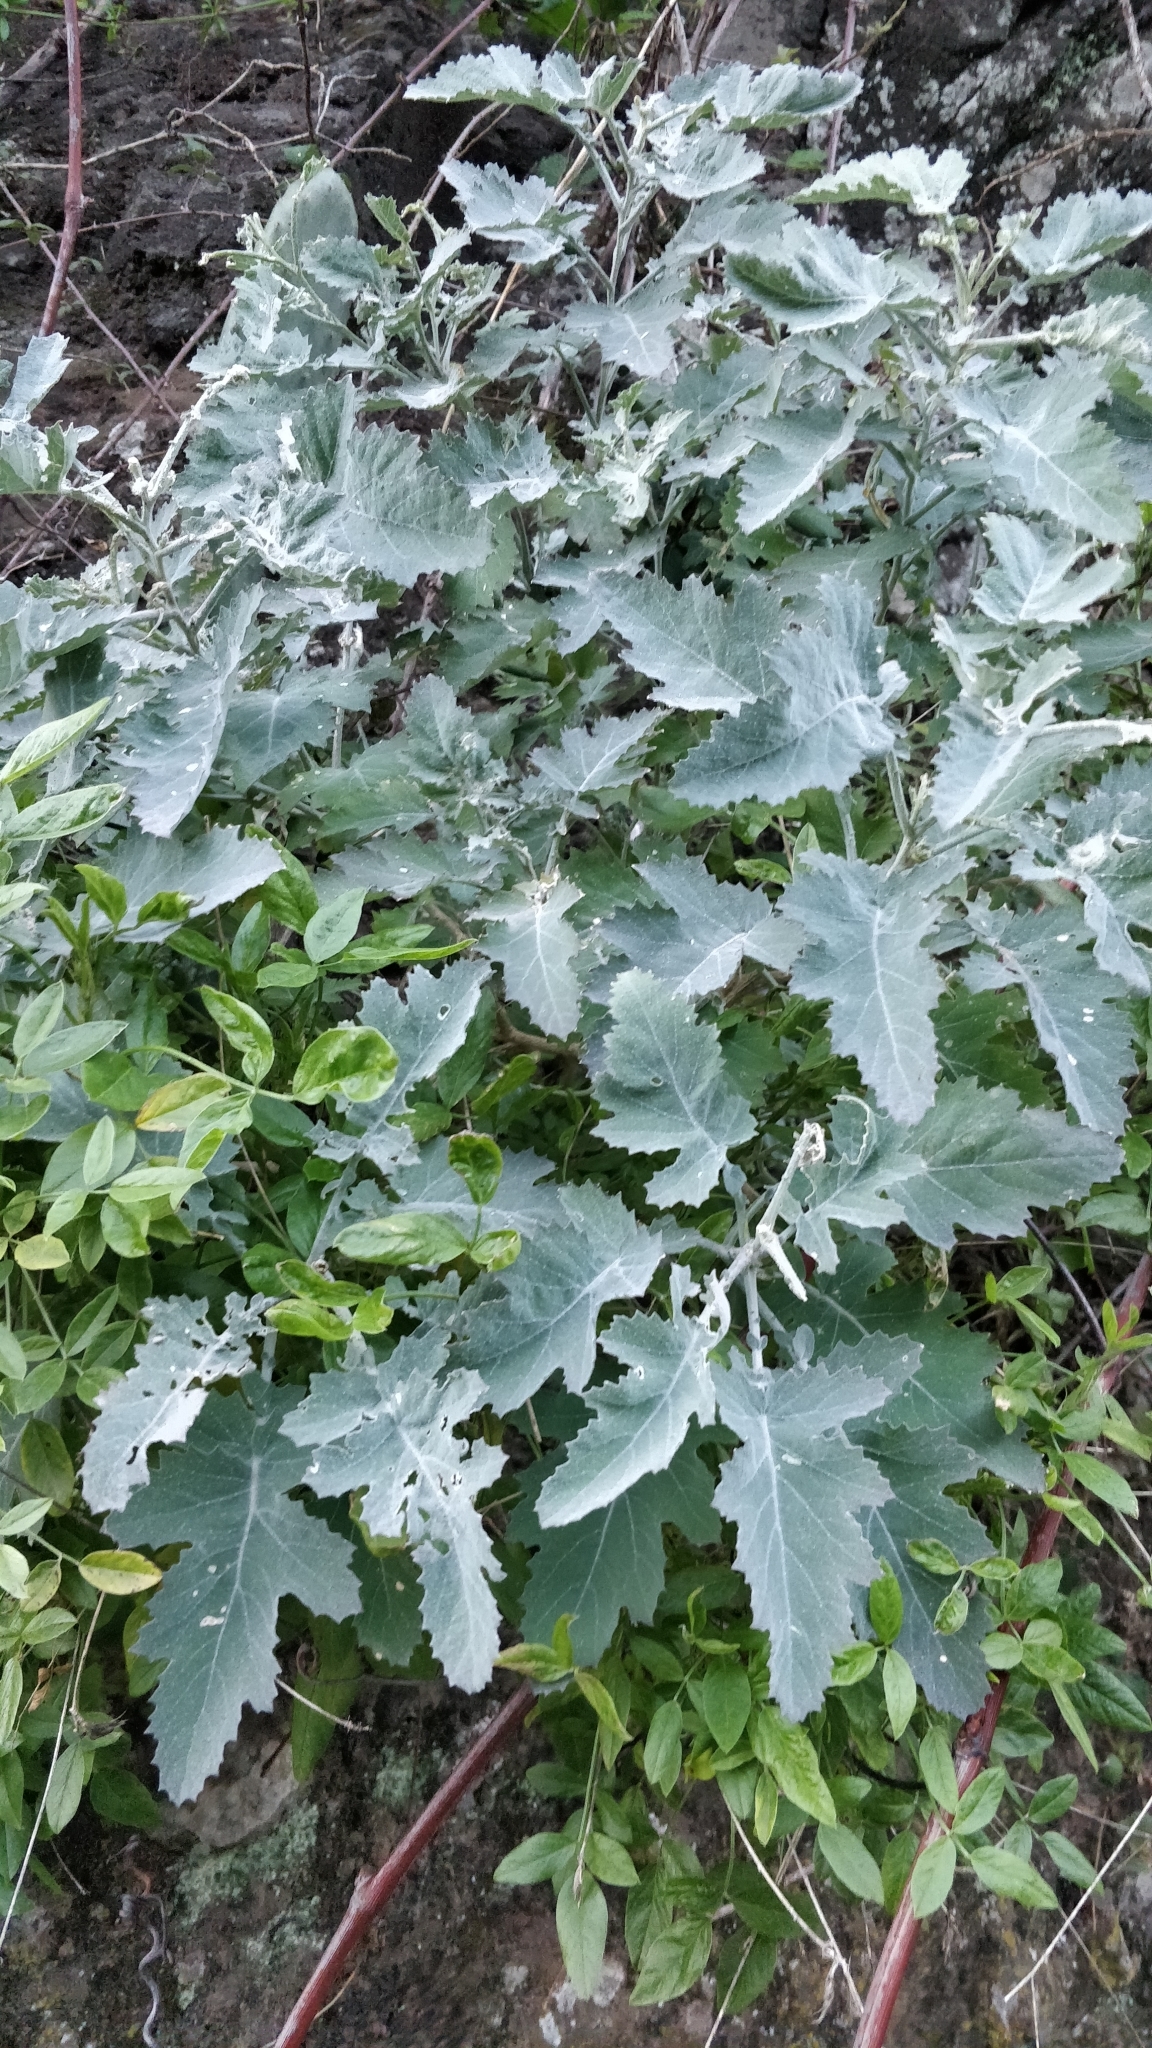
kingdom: Plantae
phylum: Tracheophyta
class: Magnoliopsida
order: Brassicales
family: Brassicaceae
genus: Crambe
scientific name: Crambe fruticosa
